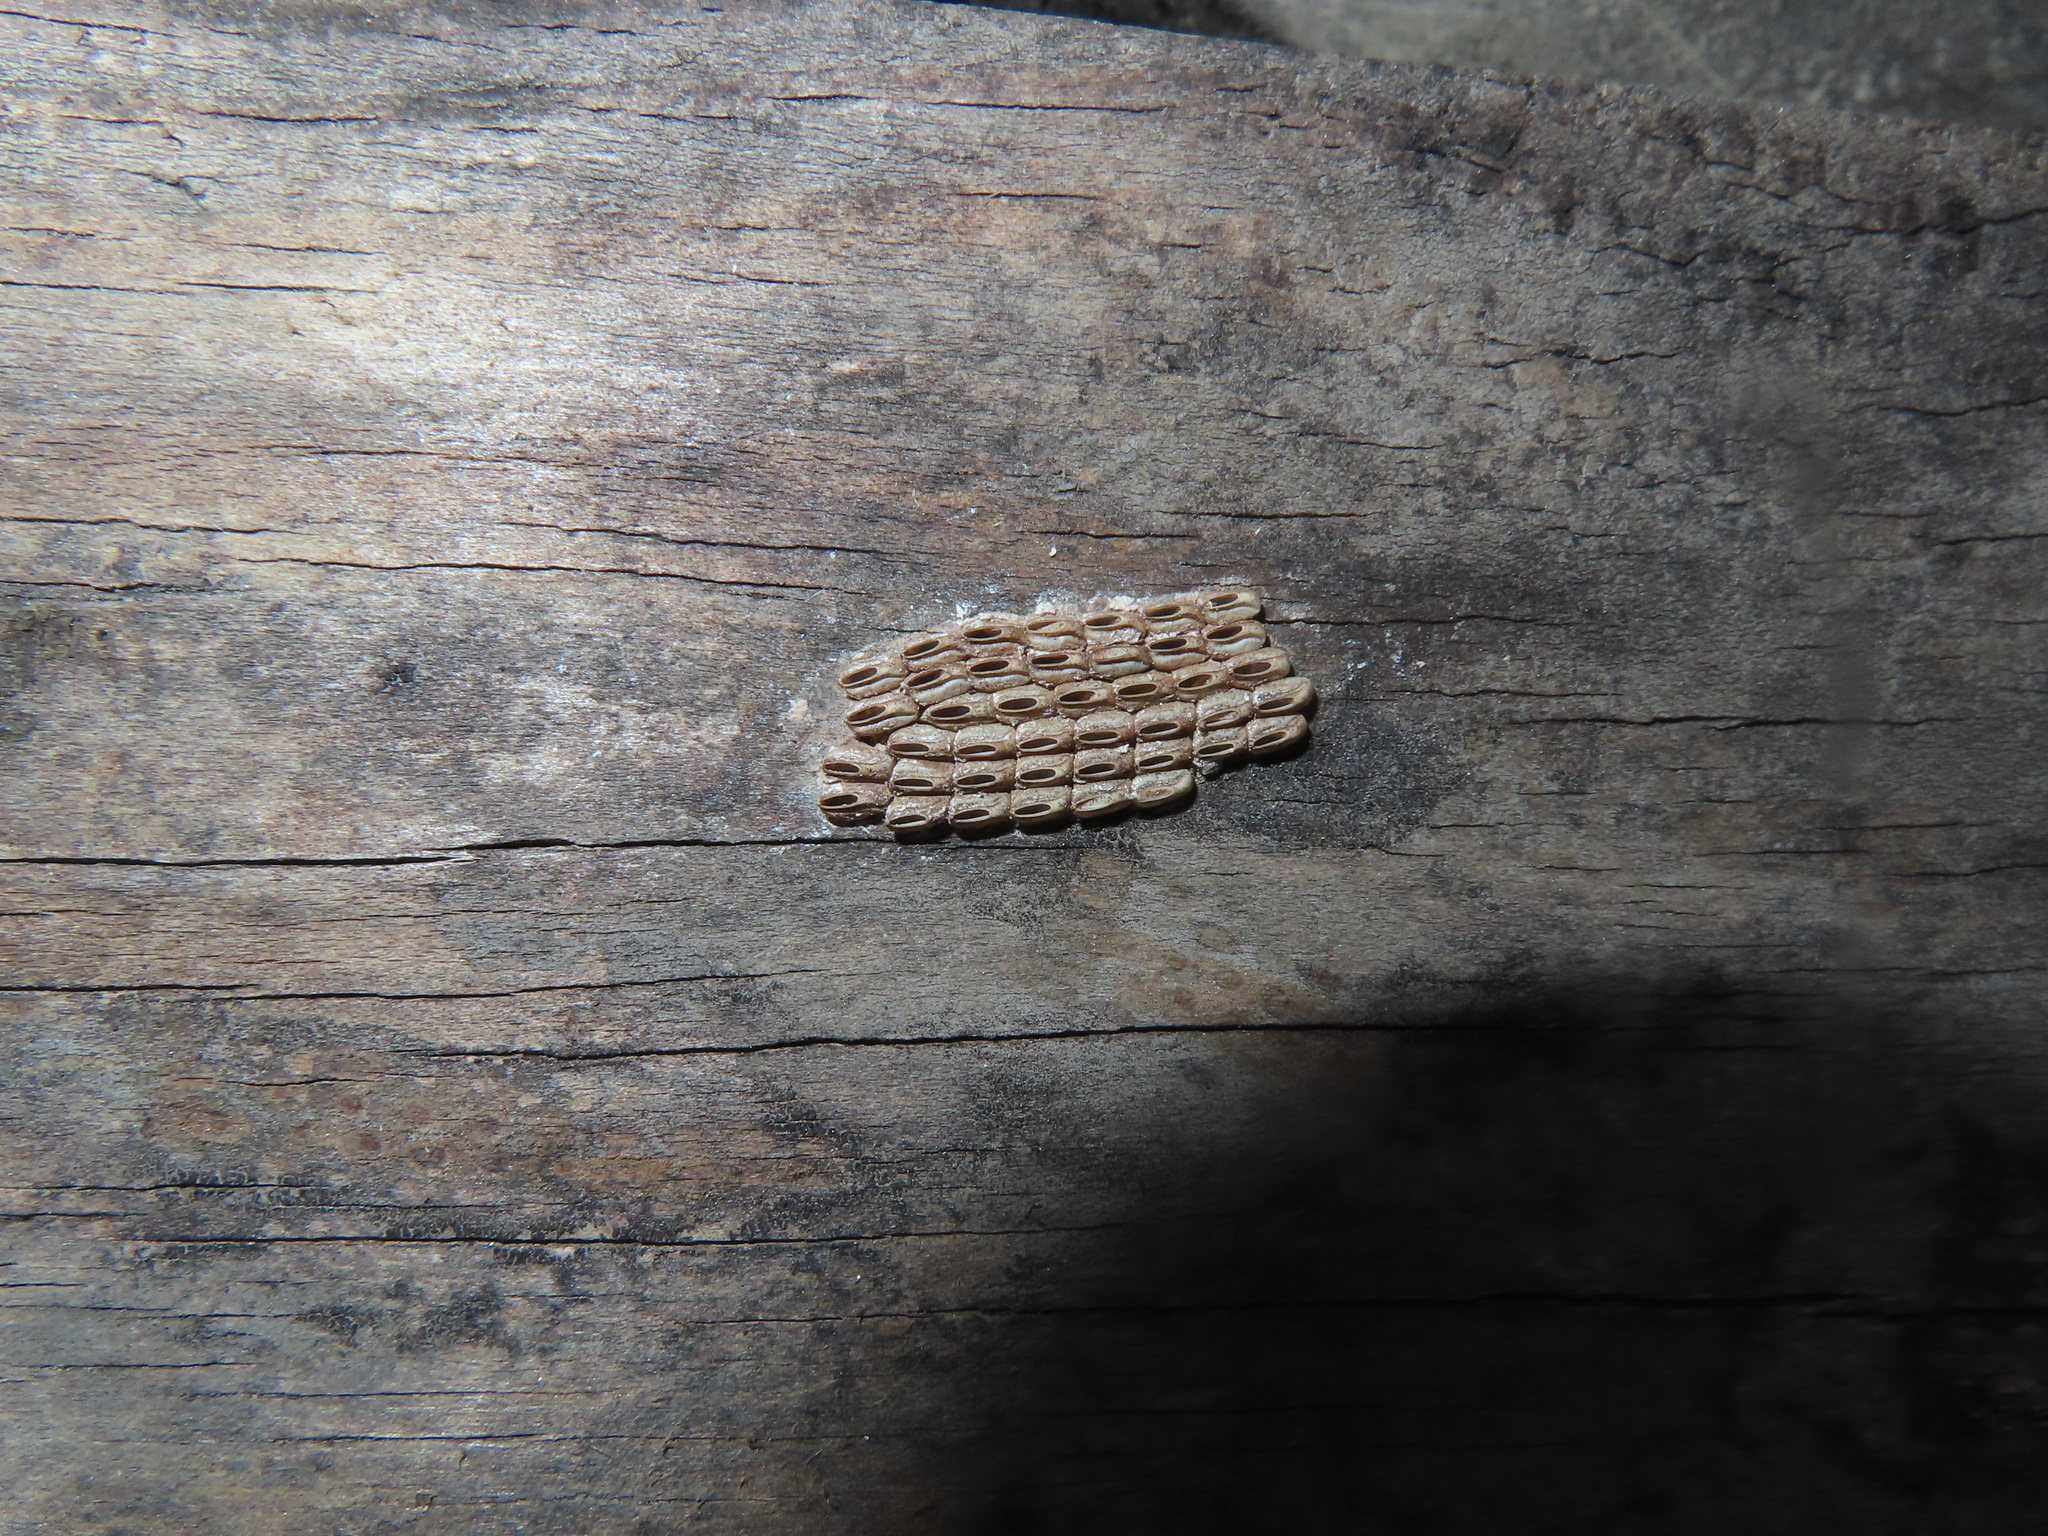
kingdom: Animalia
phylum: Arthropoda
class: Insecta
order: Hemiptera
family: Fulgoridae
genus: Lycorma
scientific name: Lycorma delicatula
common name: Spotted lanternfly
